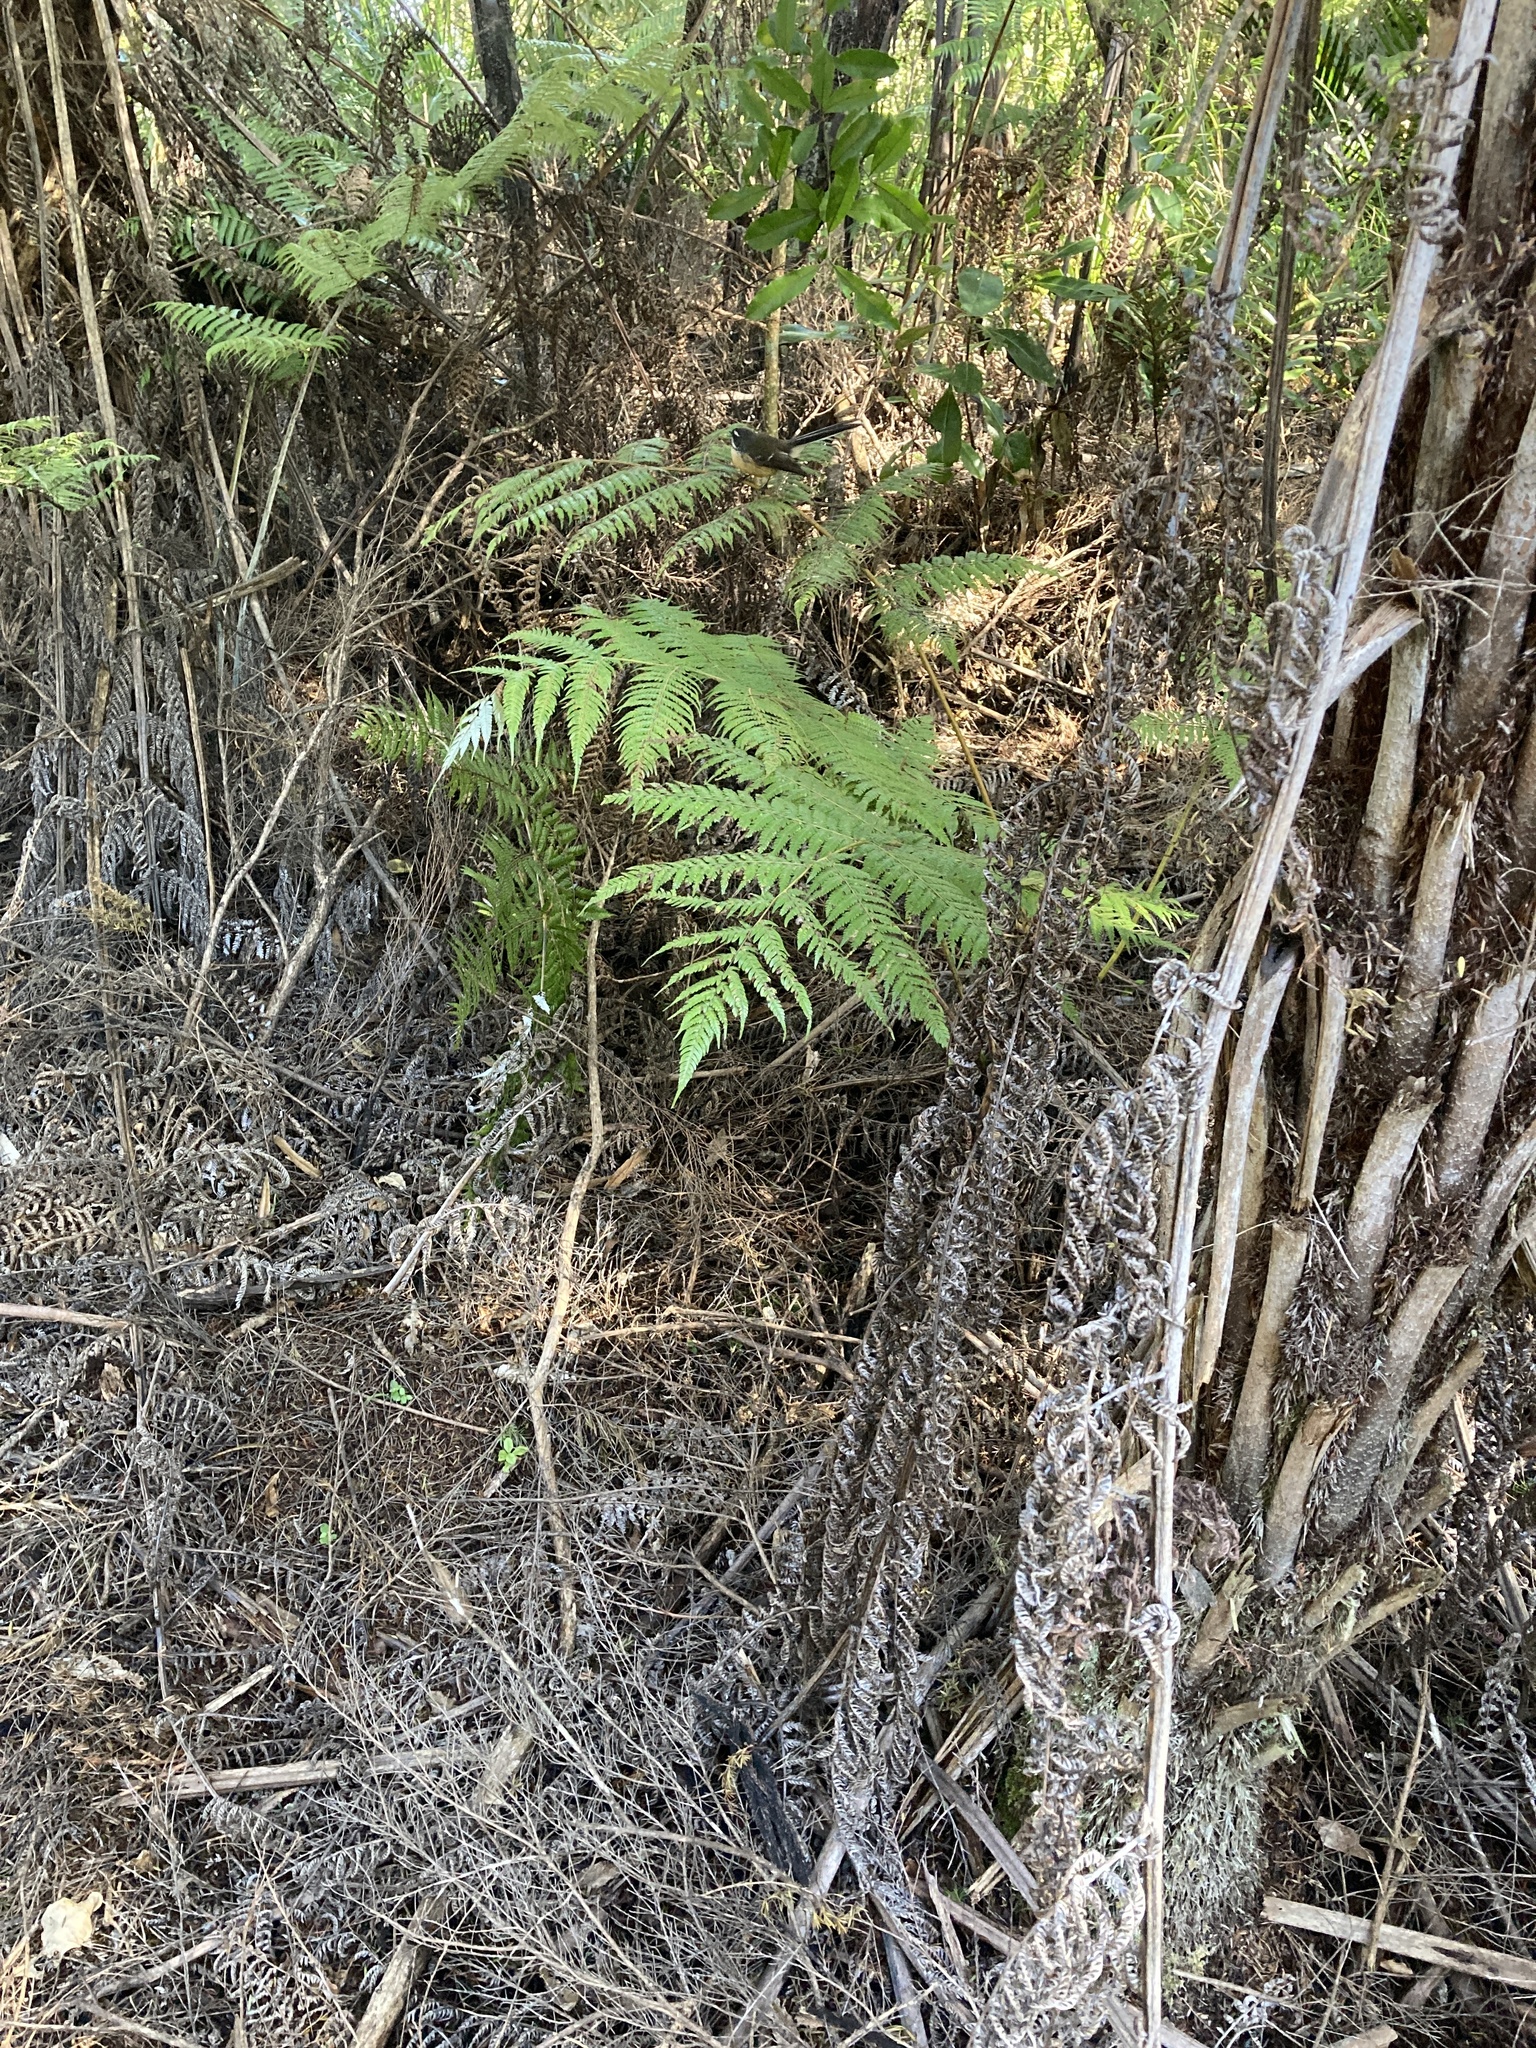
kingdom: Animalia
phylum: Chordata
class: Aves
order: Passeriformes
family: Rhipiduridae
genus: Rhipidura
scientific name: Rhipidura fuliginosa
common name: New zealand fantail
